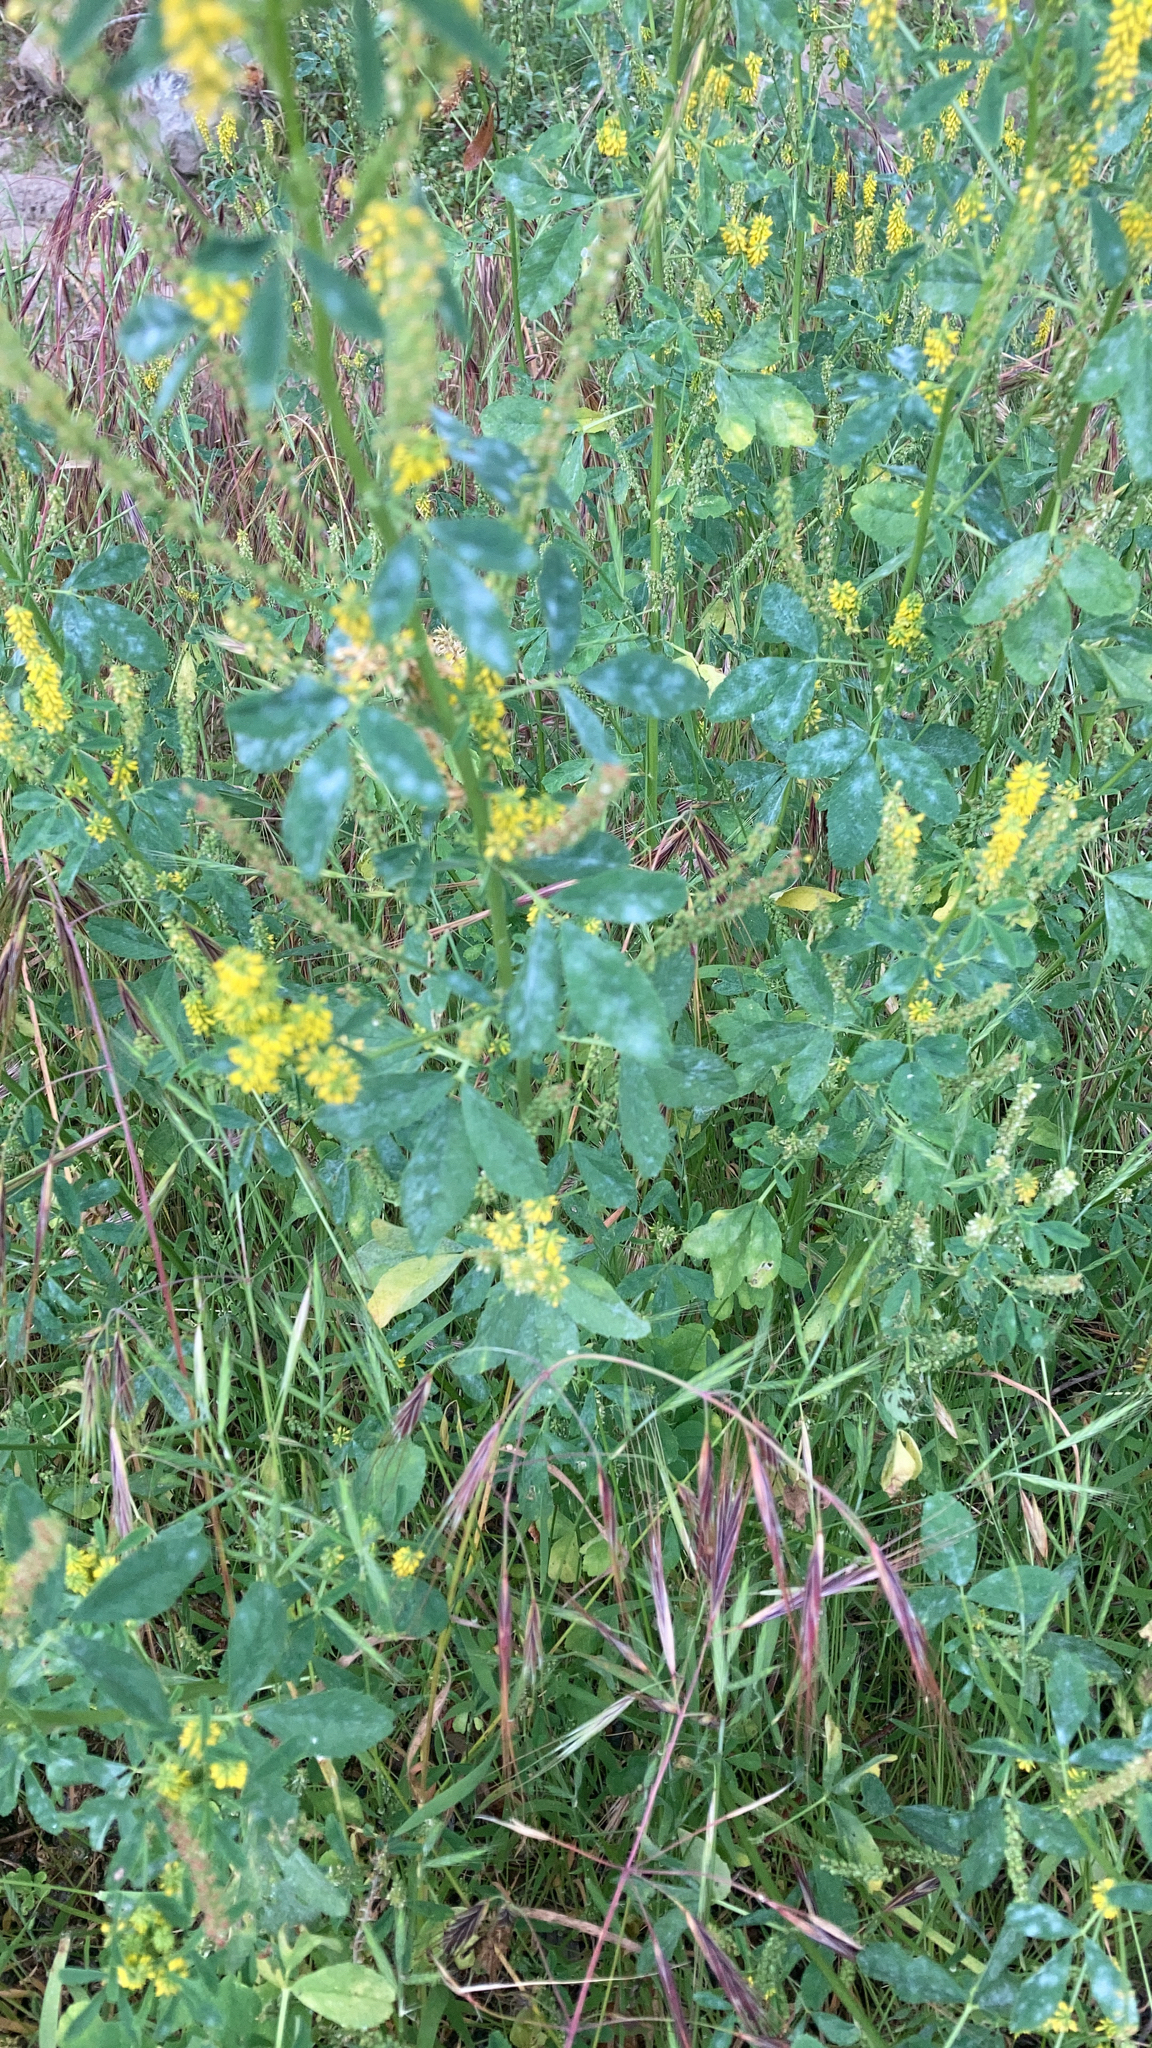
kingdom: Plantae
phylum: Tracheophyta
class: Magnoliopsida
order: Fabales
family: Fabaceae
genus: Melilotus
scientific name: Melilotus indicus
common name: Small melilot
